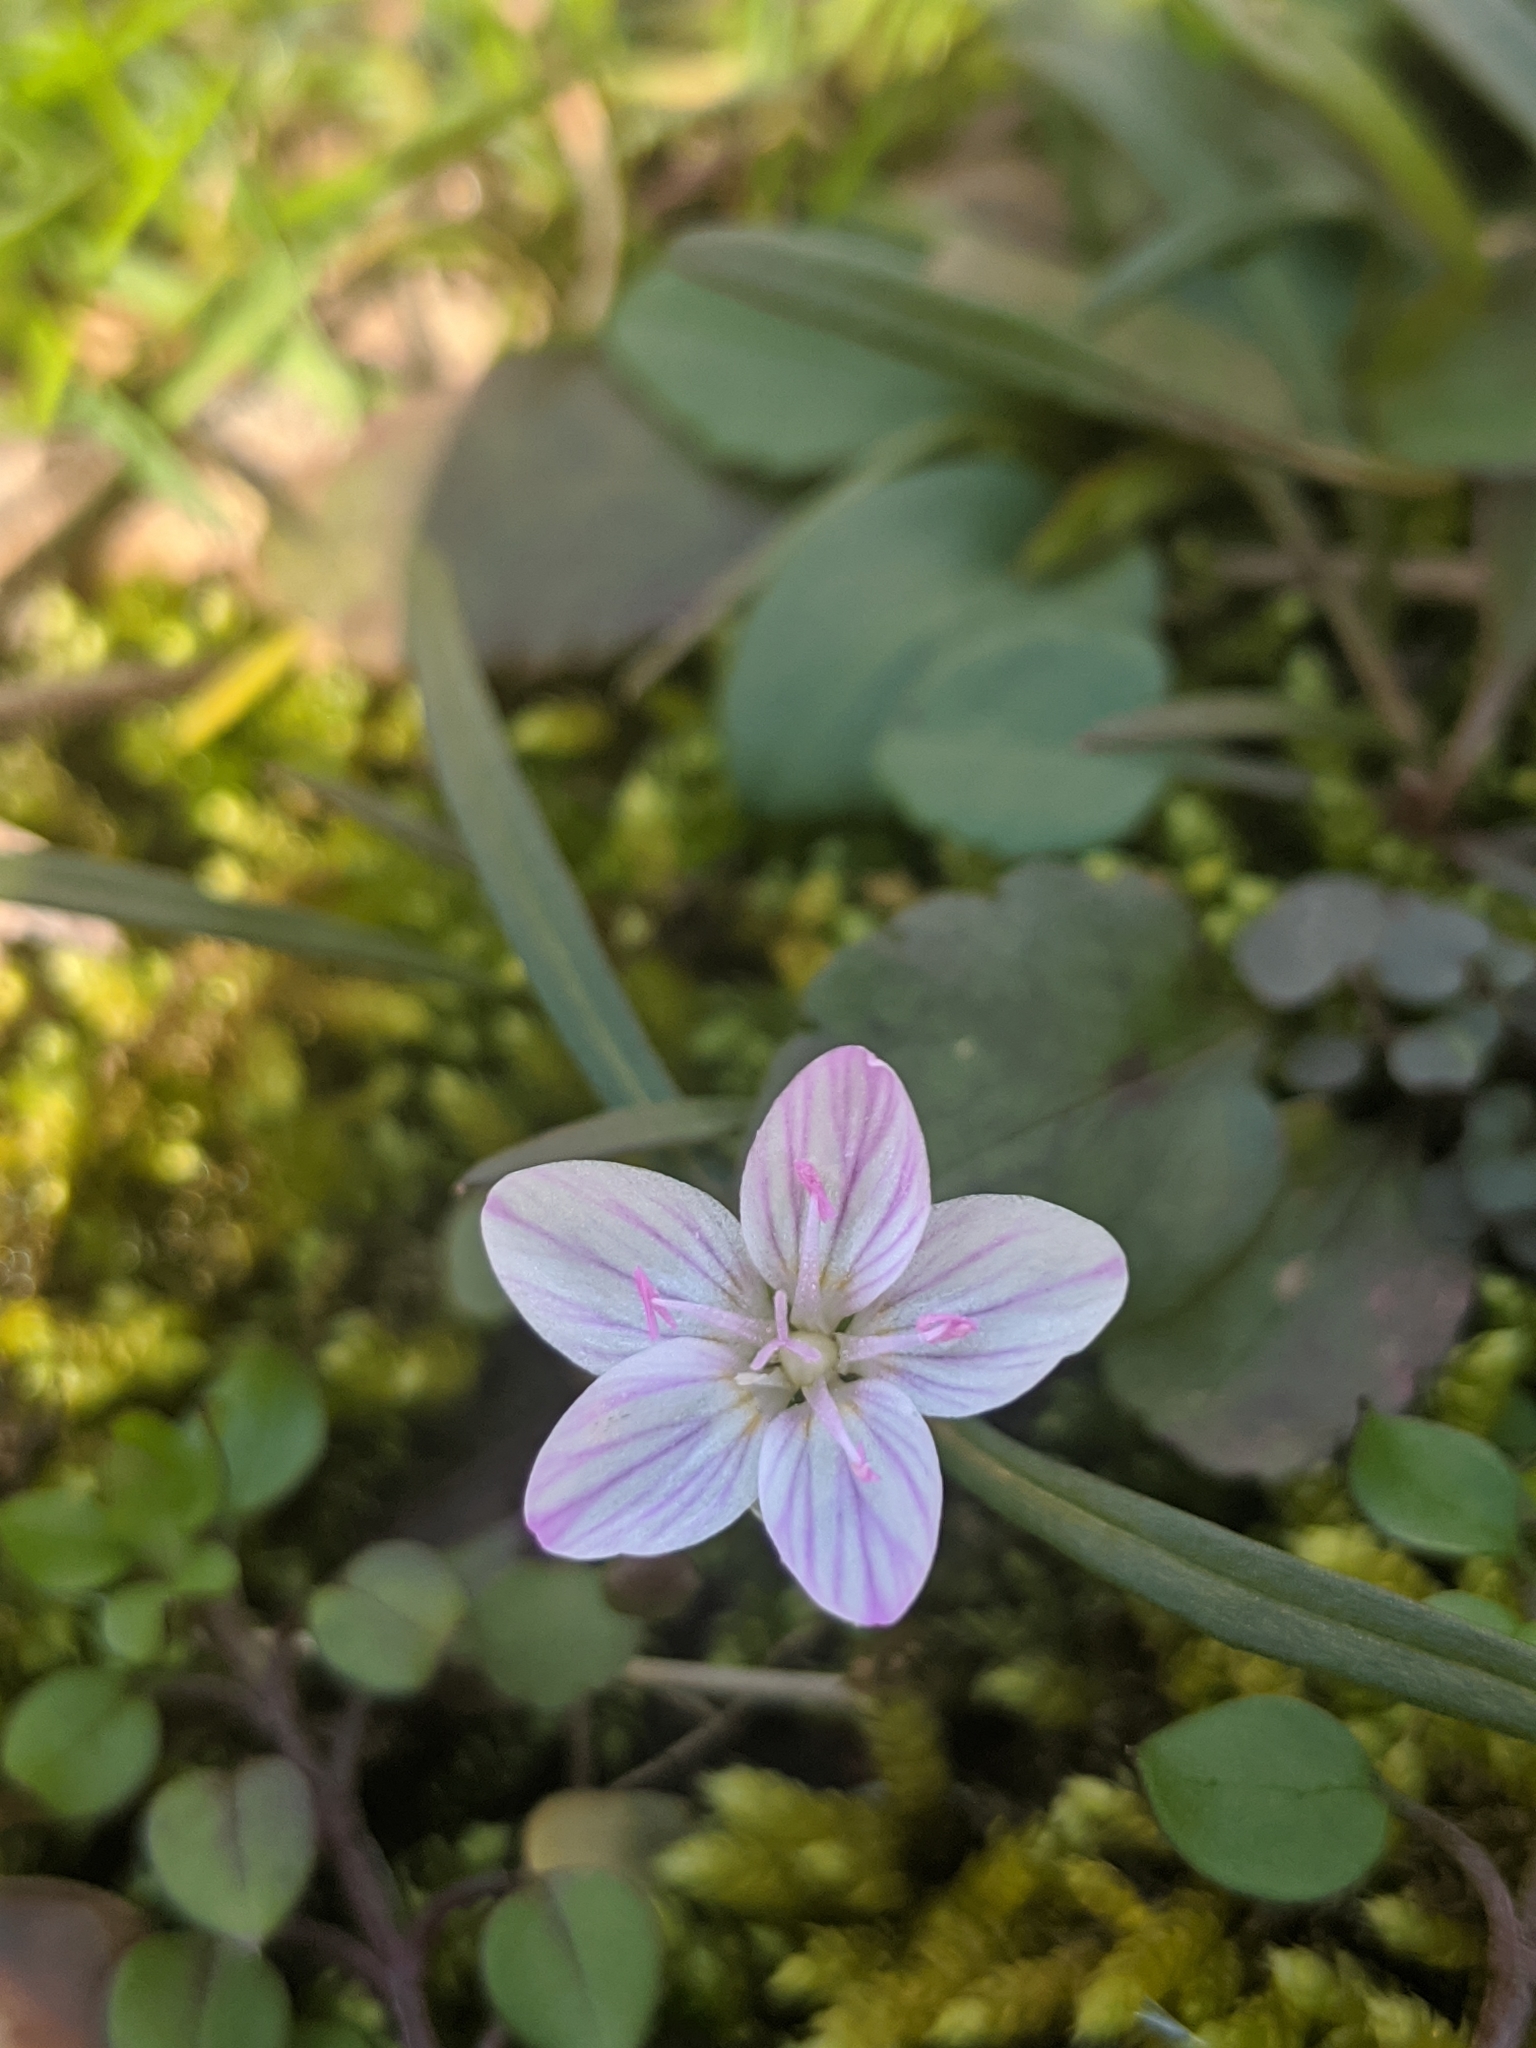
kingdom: Plantae
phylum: Tracheophyta
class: Magnoliopsida
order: Caryophyllales
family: Montiaceae
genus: Claytonia
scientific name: Claytonia virginica
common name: Virginia springbeauty
